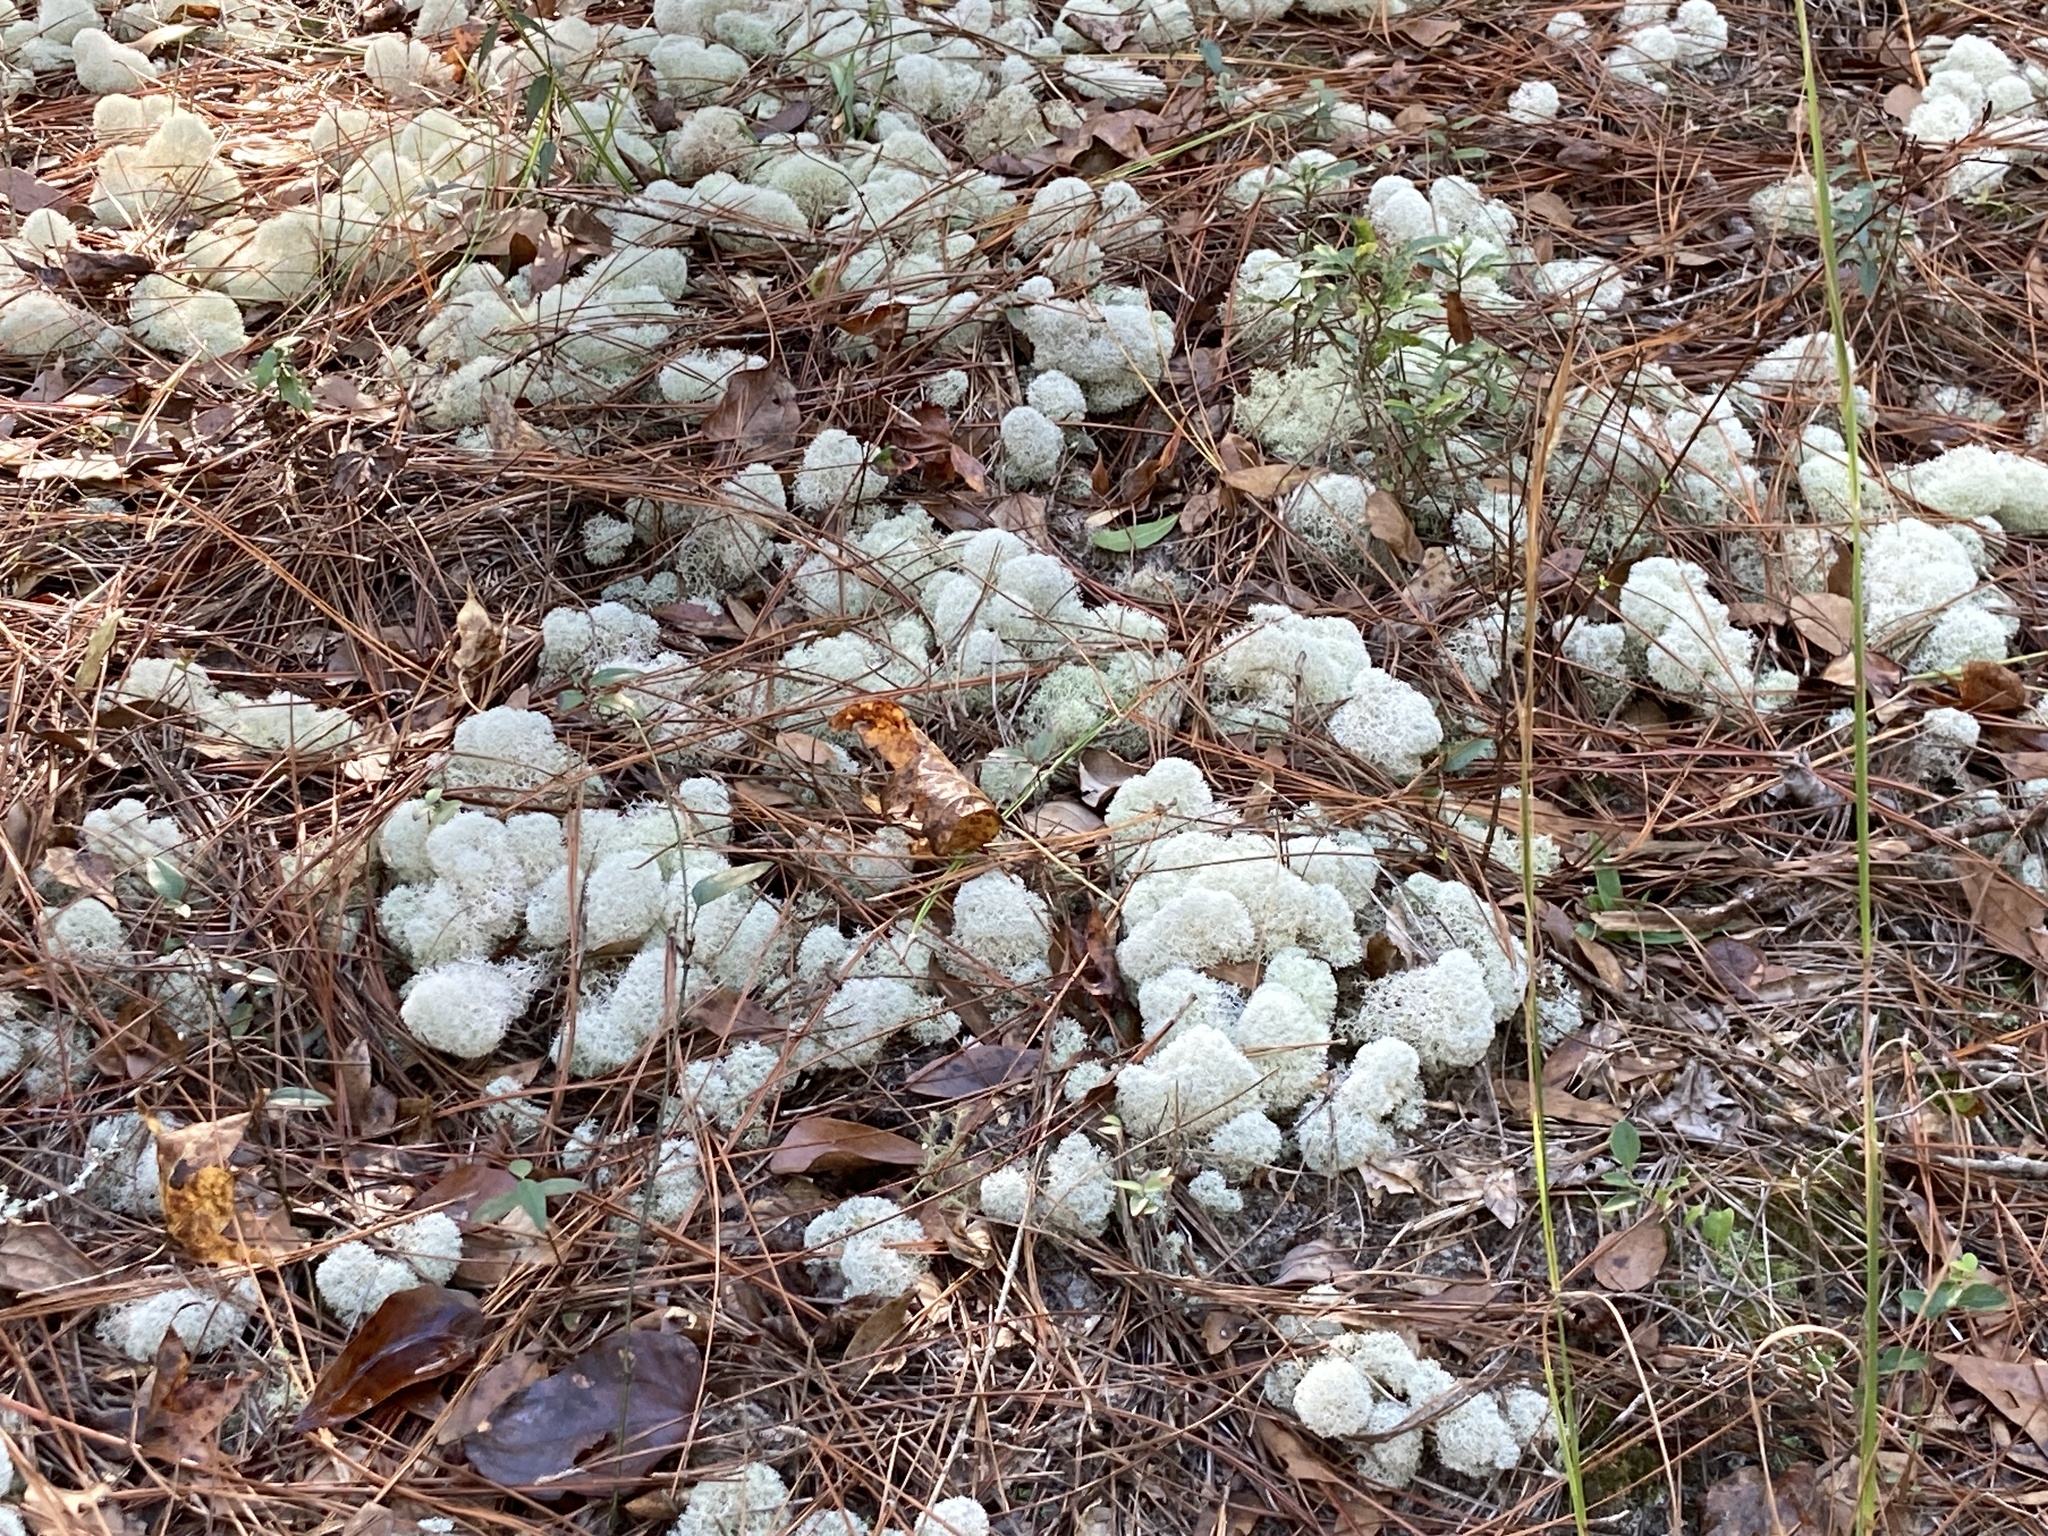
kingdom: Fungi
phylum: Ascomycota
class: Lecanoromycetes
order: Lecanorales
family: Cladoniaceae
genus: Cladonia
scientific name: Cladonia evansii
